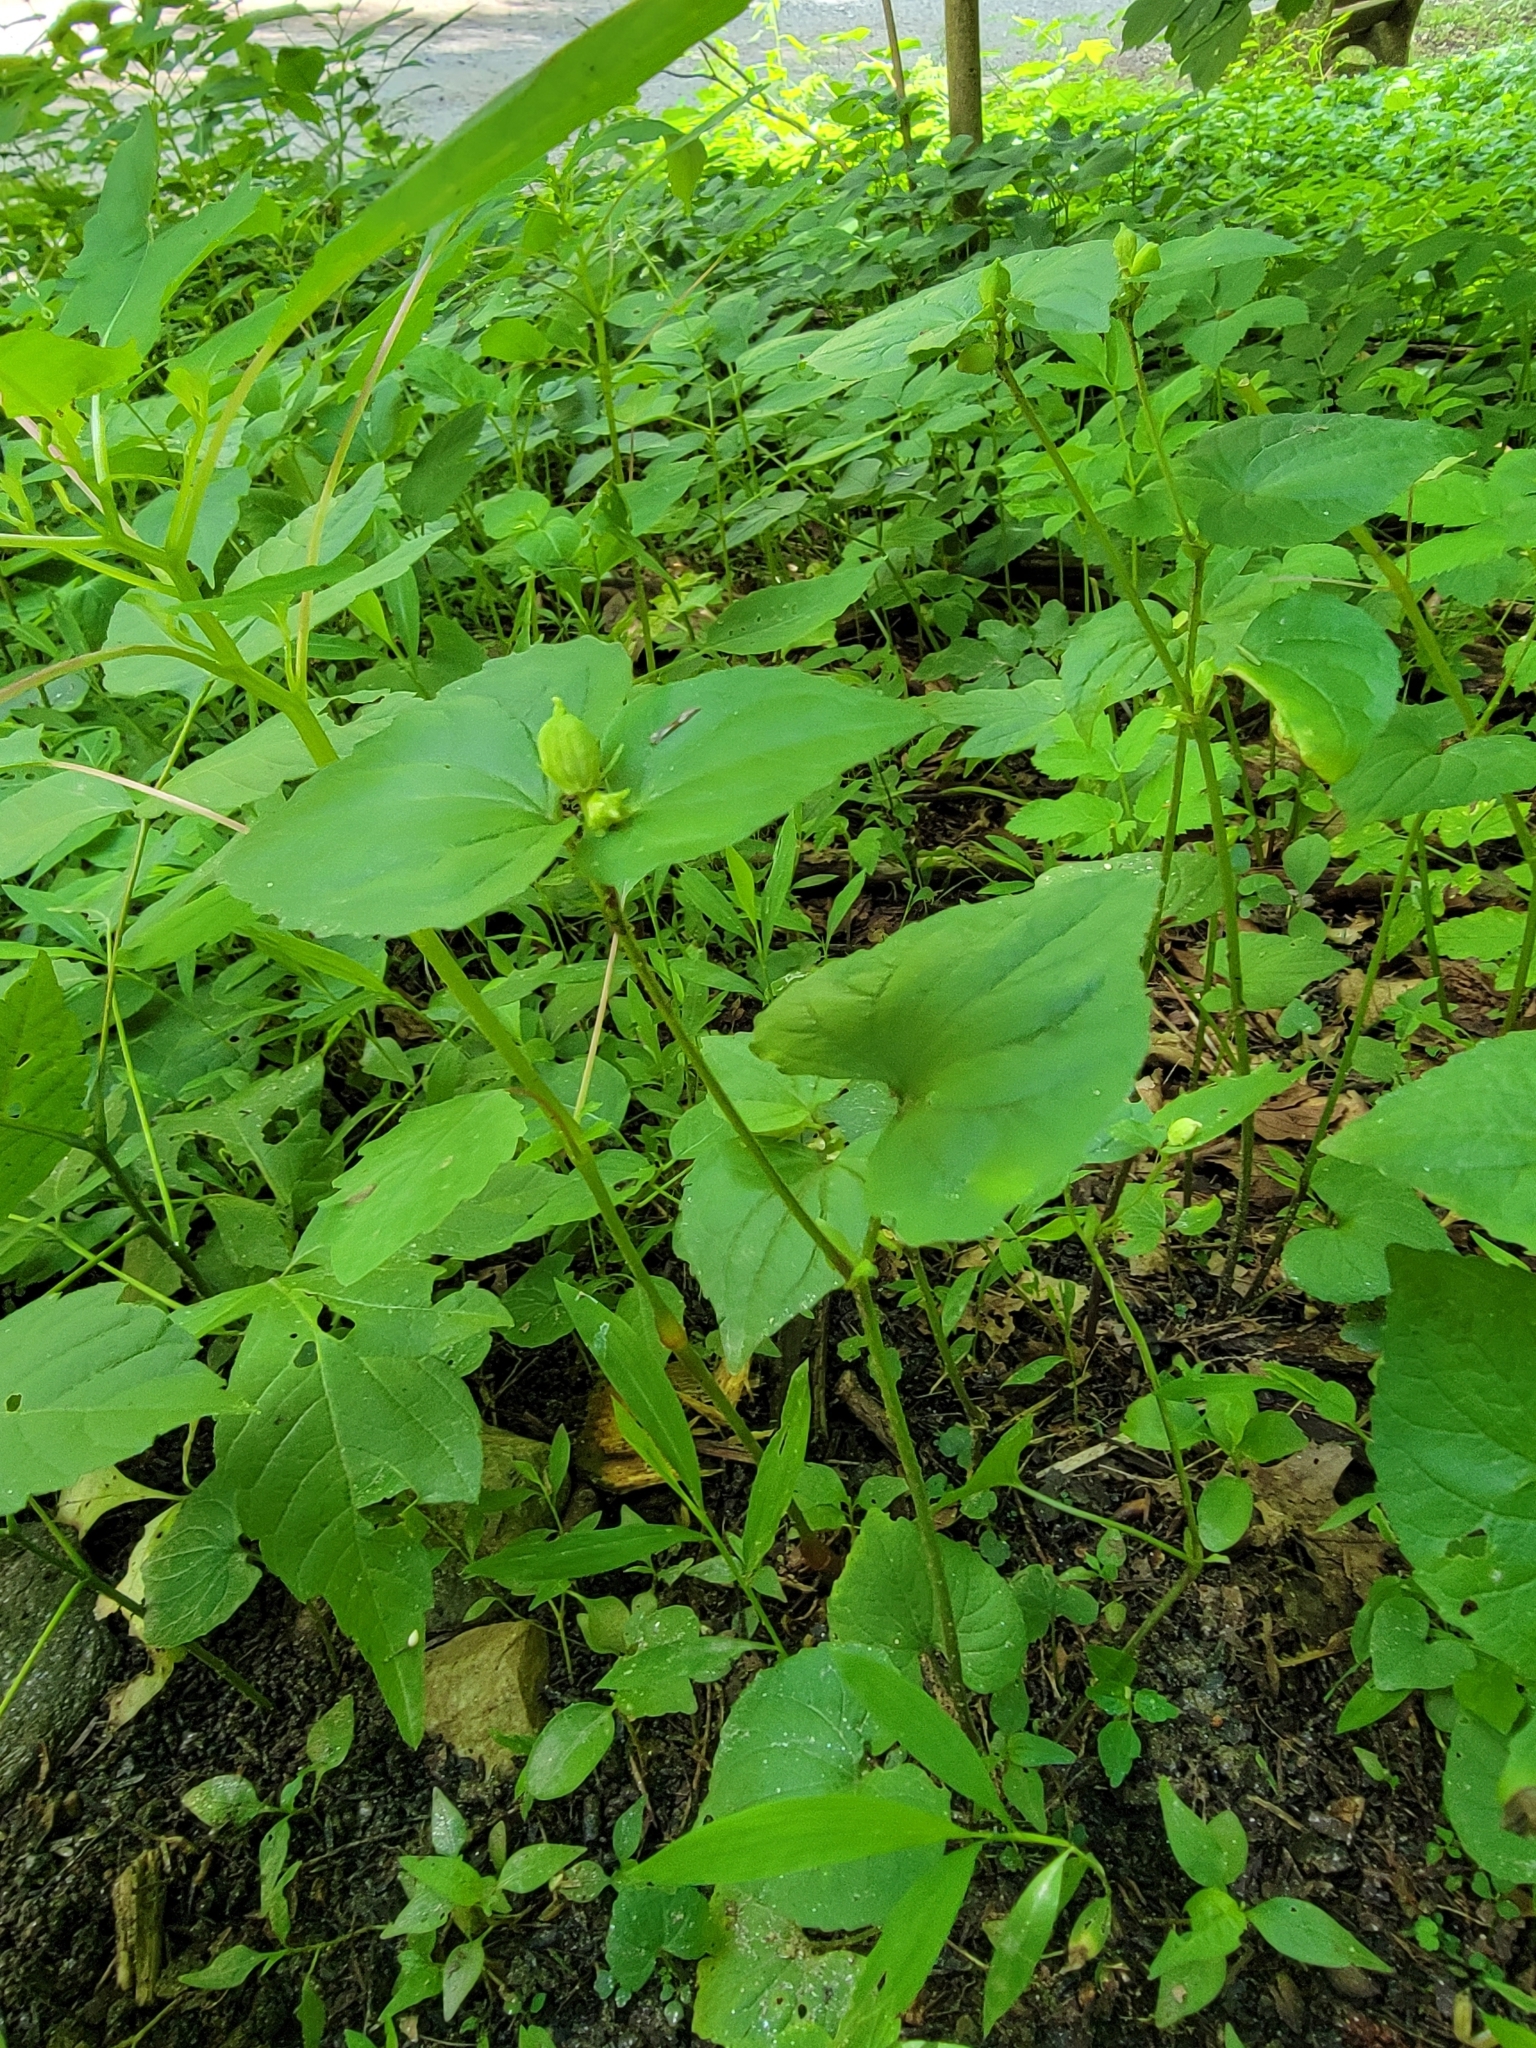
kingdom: Plantae
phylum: Tracheophyta
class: Magnoliopsida
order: Malpighiales
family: Violaceae
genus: Viola
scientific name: Viola eriocarpa
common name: Smooth yellow violet
